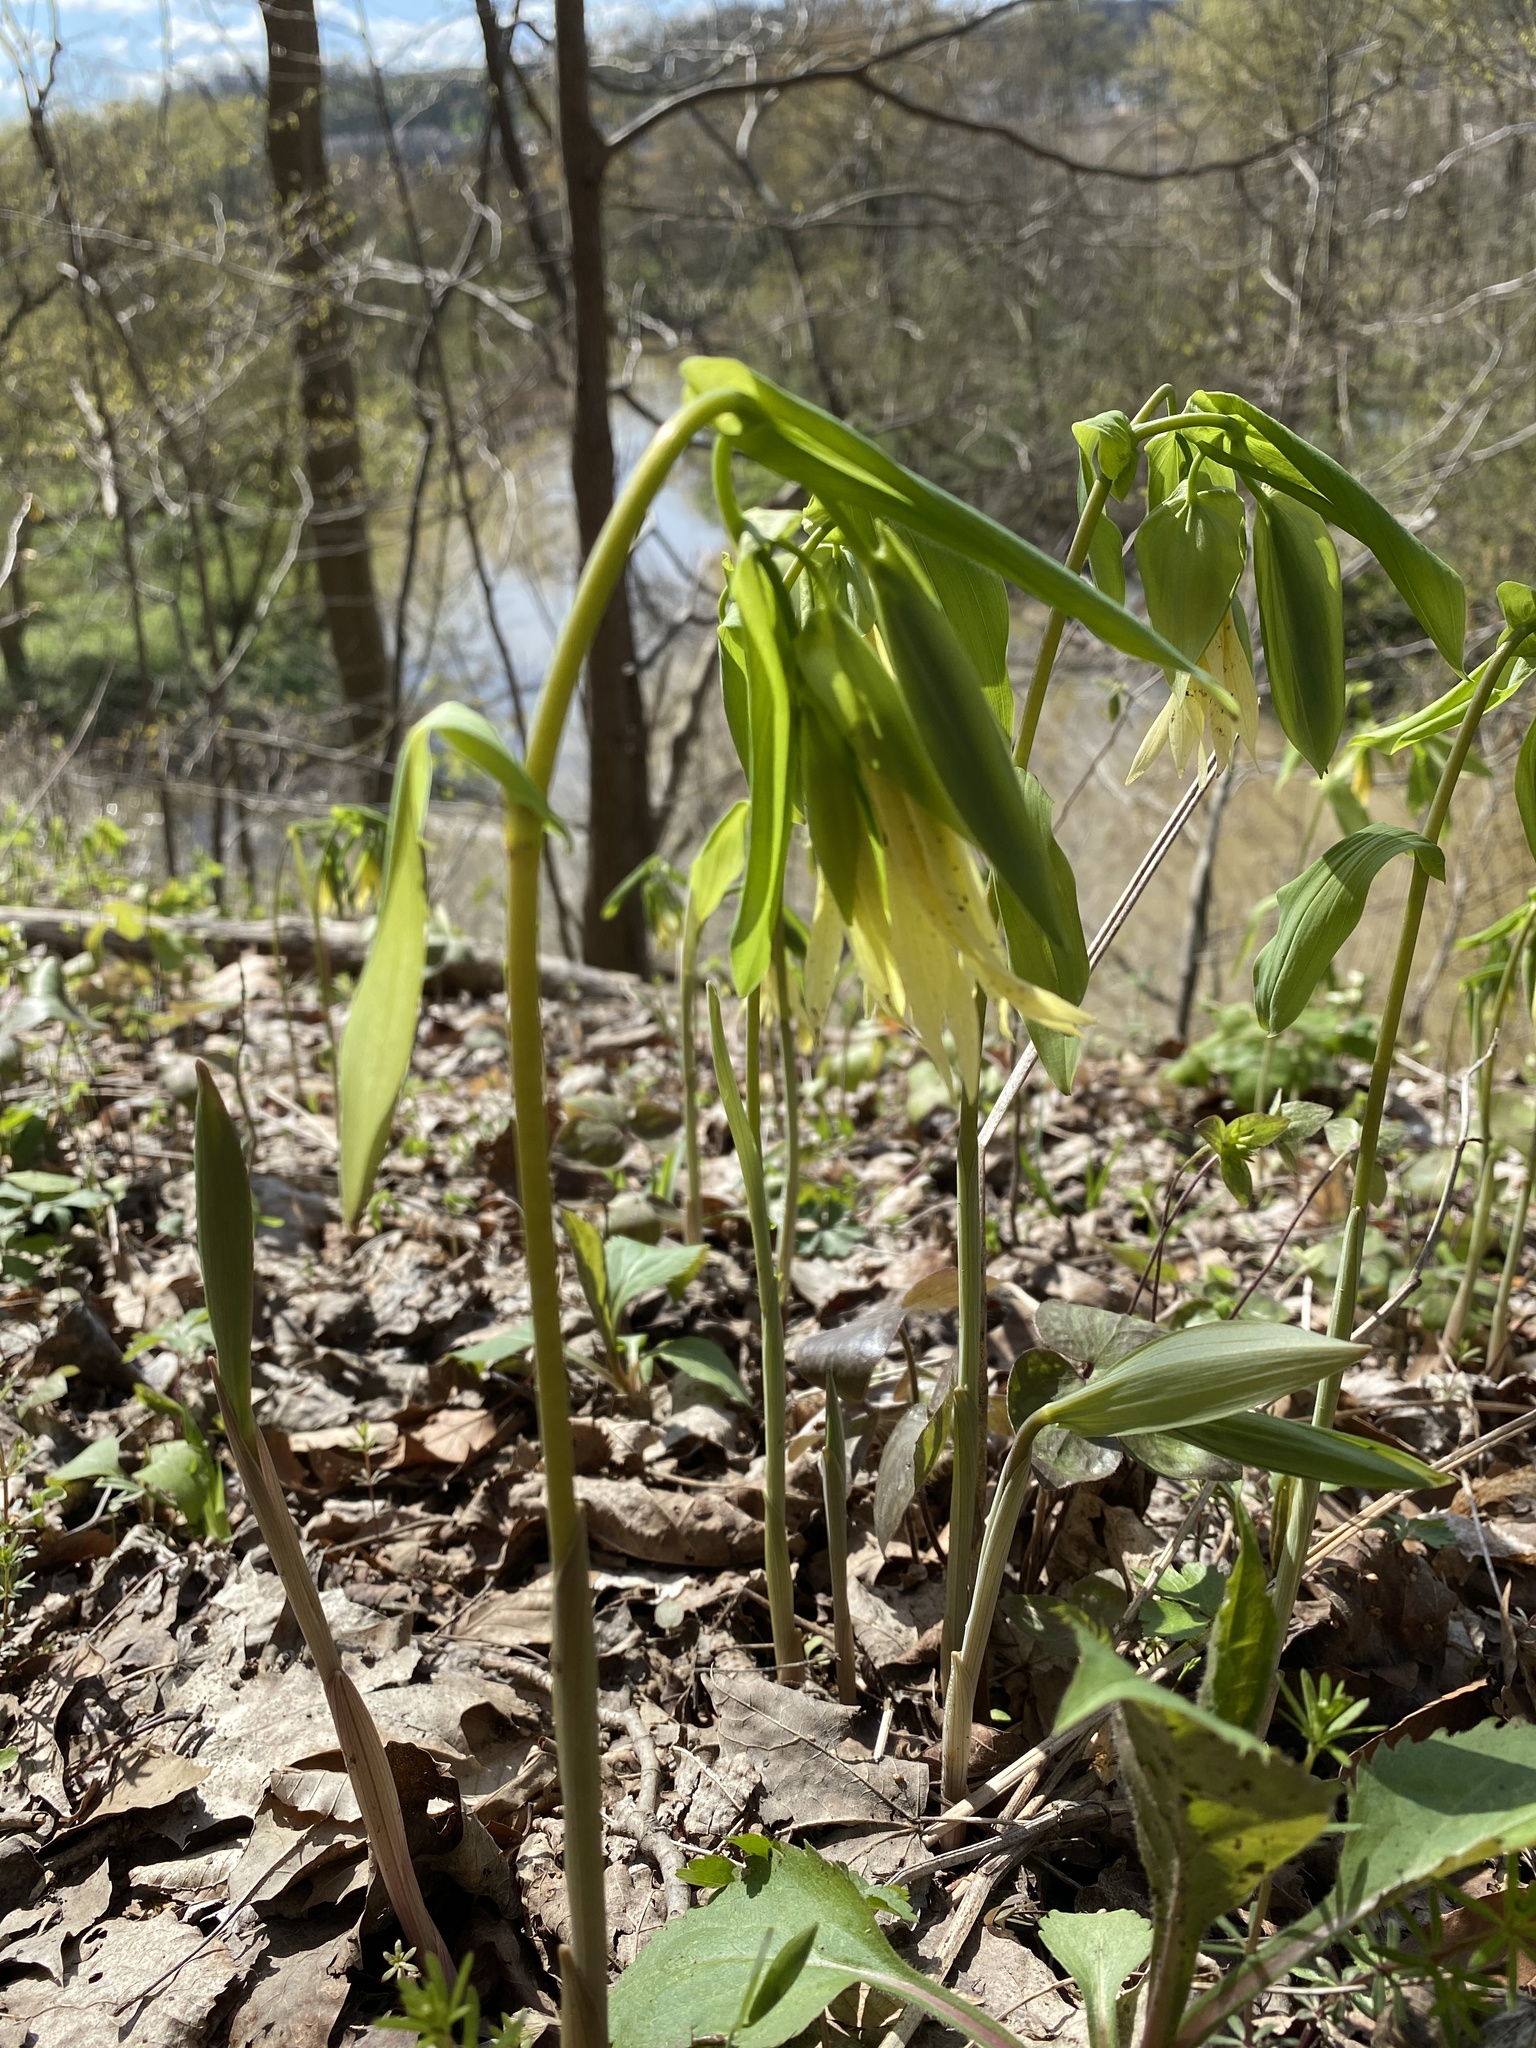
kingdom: Plantae
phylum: Tracheophyta
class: Liliopsida
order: Liliales
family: Colchicaceae
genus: Uvularia
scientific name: Uvularia grandiflora
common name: Bellwort
